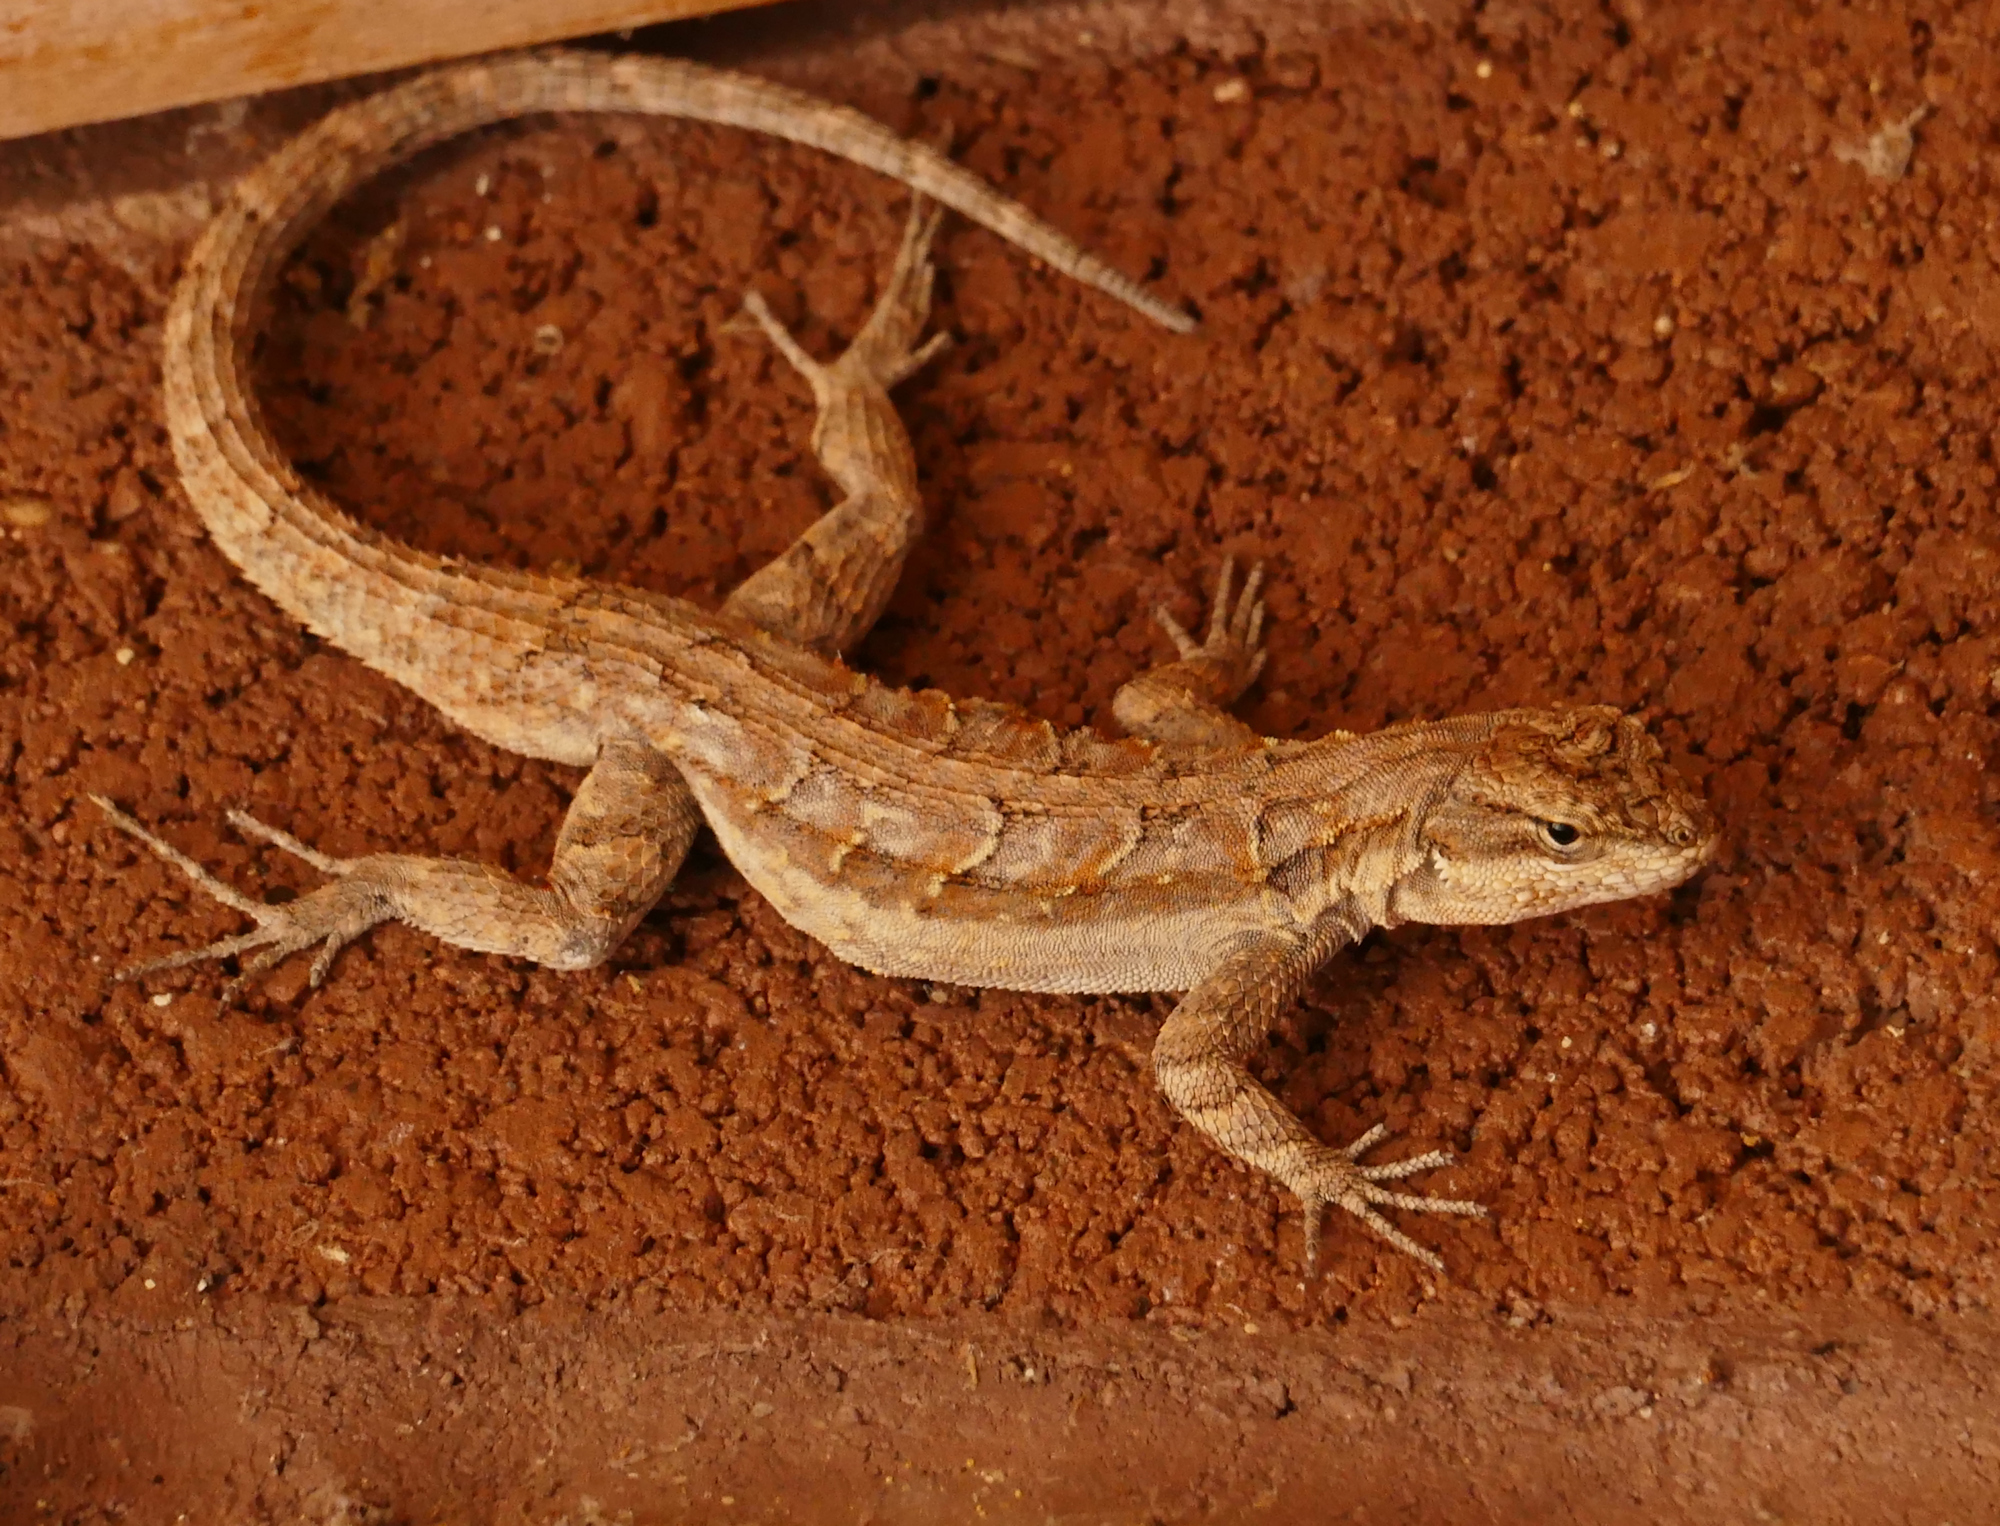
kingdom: Animalia
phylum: Chordata
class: Squamata
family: Phrynosomatidae
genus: Urosaurus
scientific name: Urosaurus ornatus
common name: Ornate tree lizard
